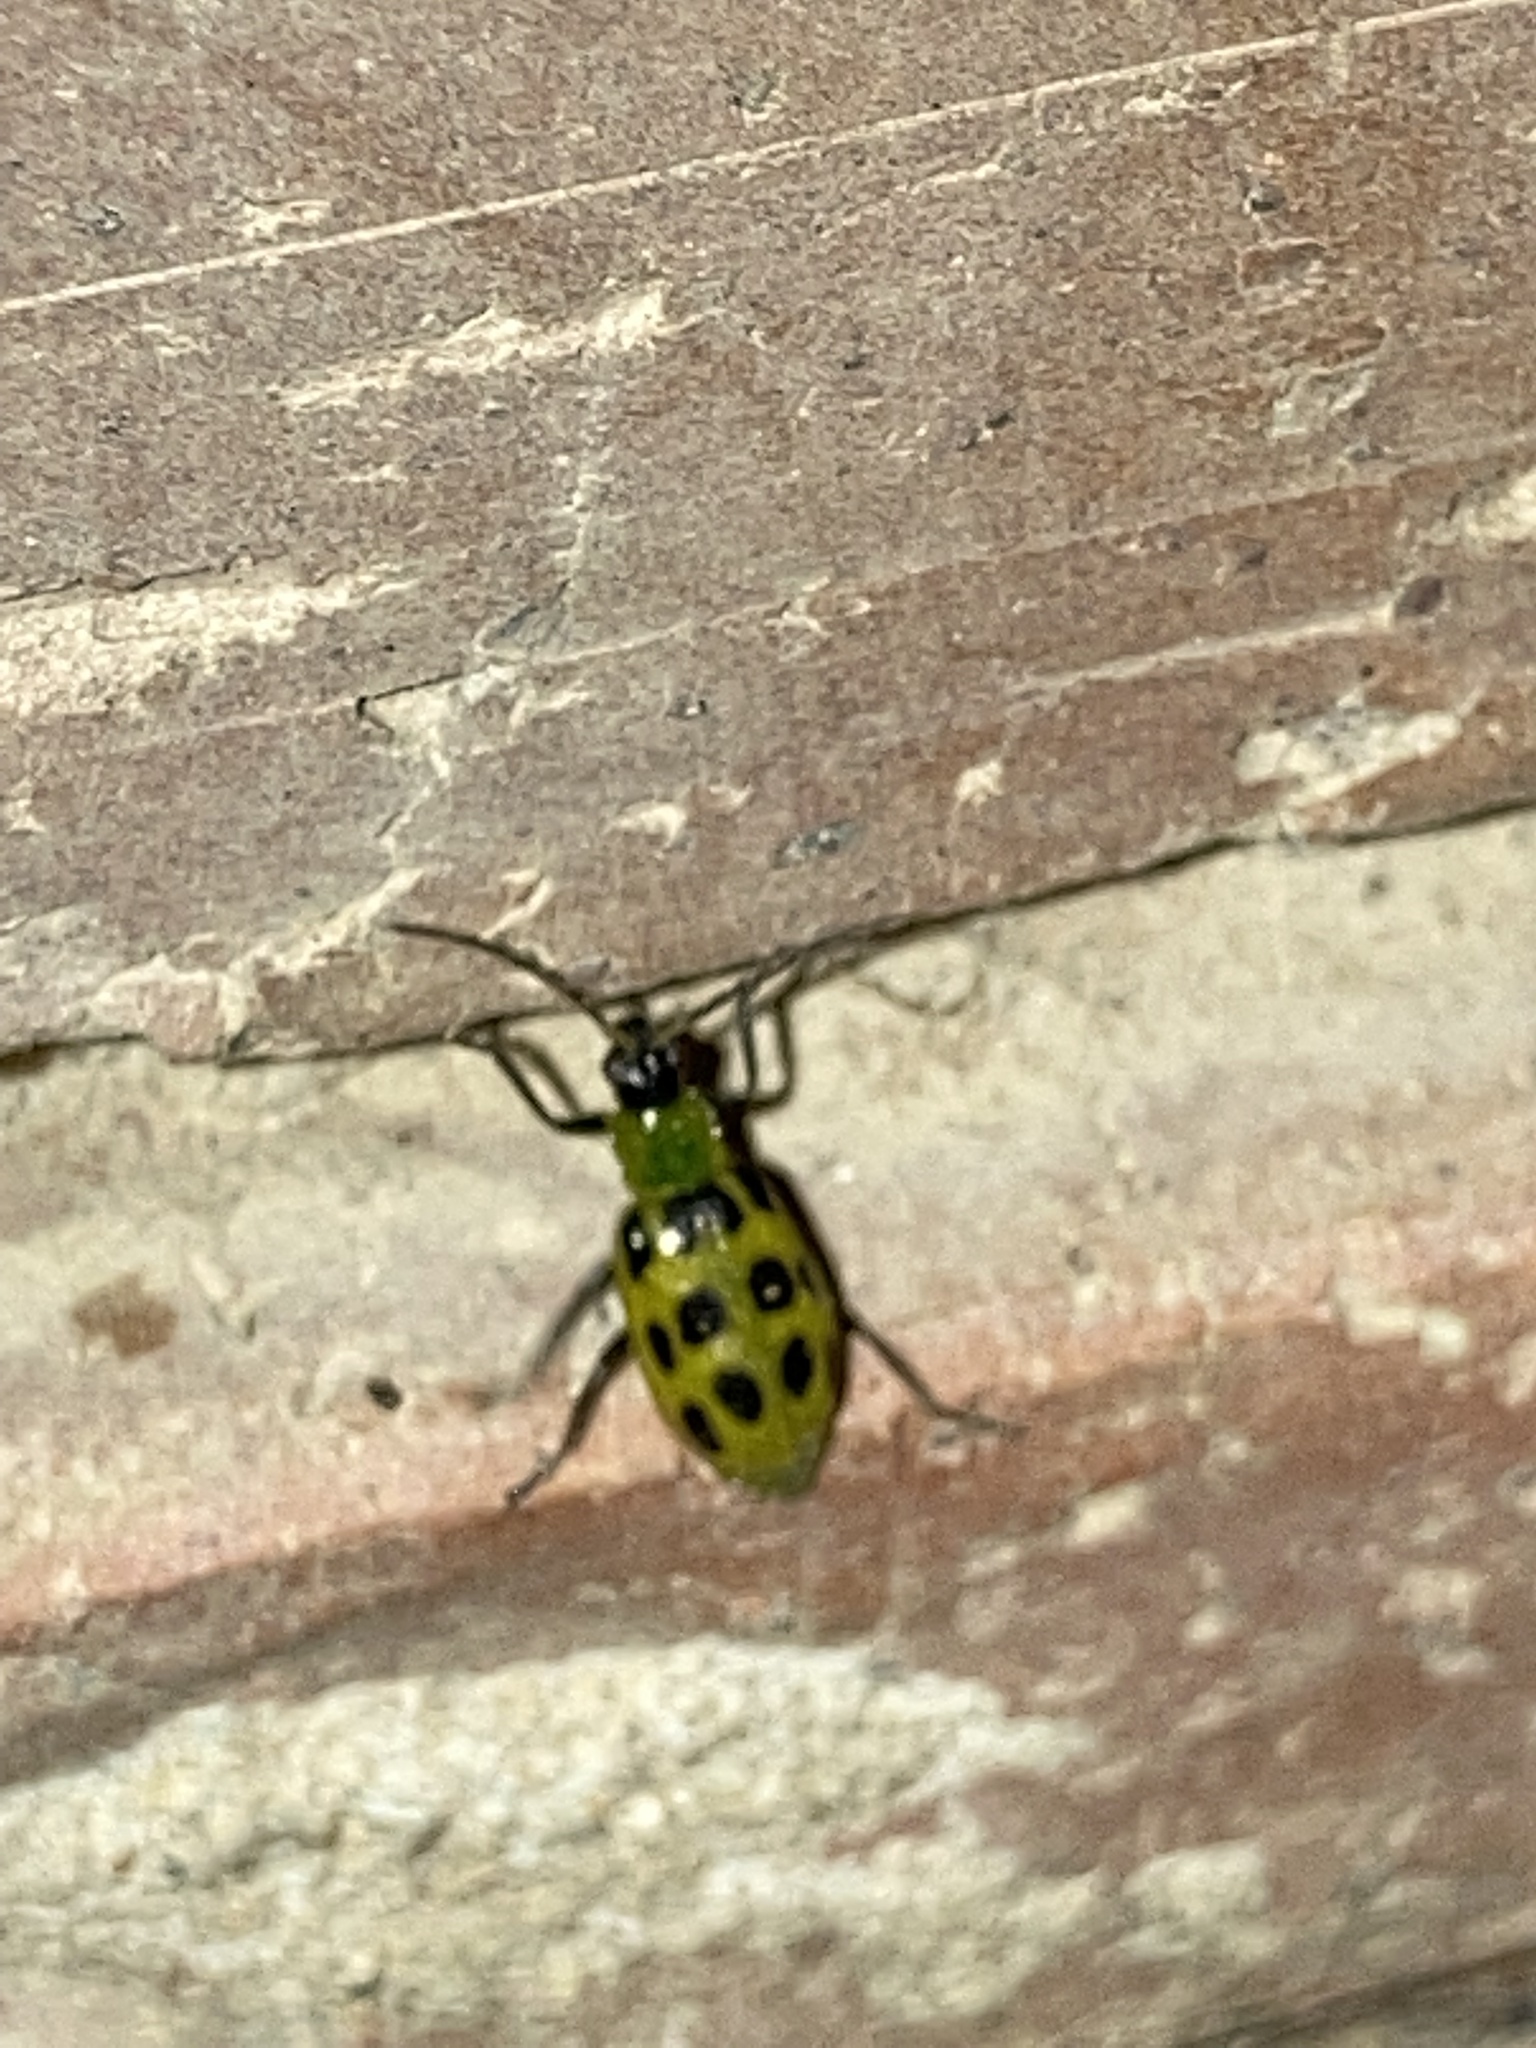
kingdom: Animalia
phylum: Arthropoda
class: Insecta
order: Coleoptera
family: Chrysomelidae
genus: Diabrotica
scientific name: Diabrotica undecimpunctata
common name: Spotted cucumber beetle
